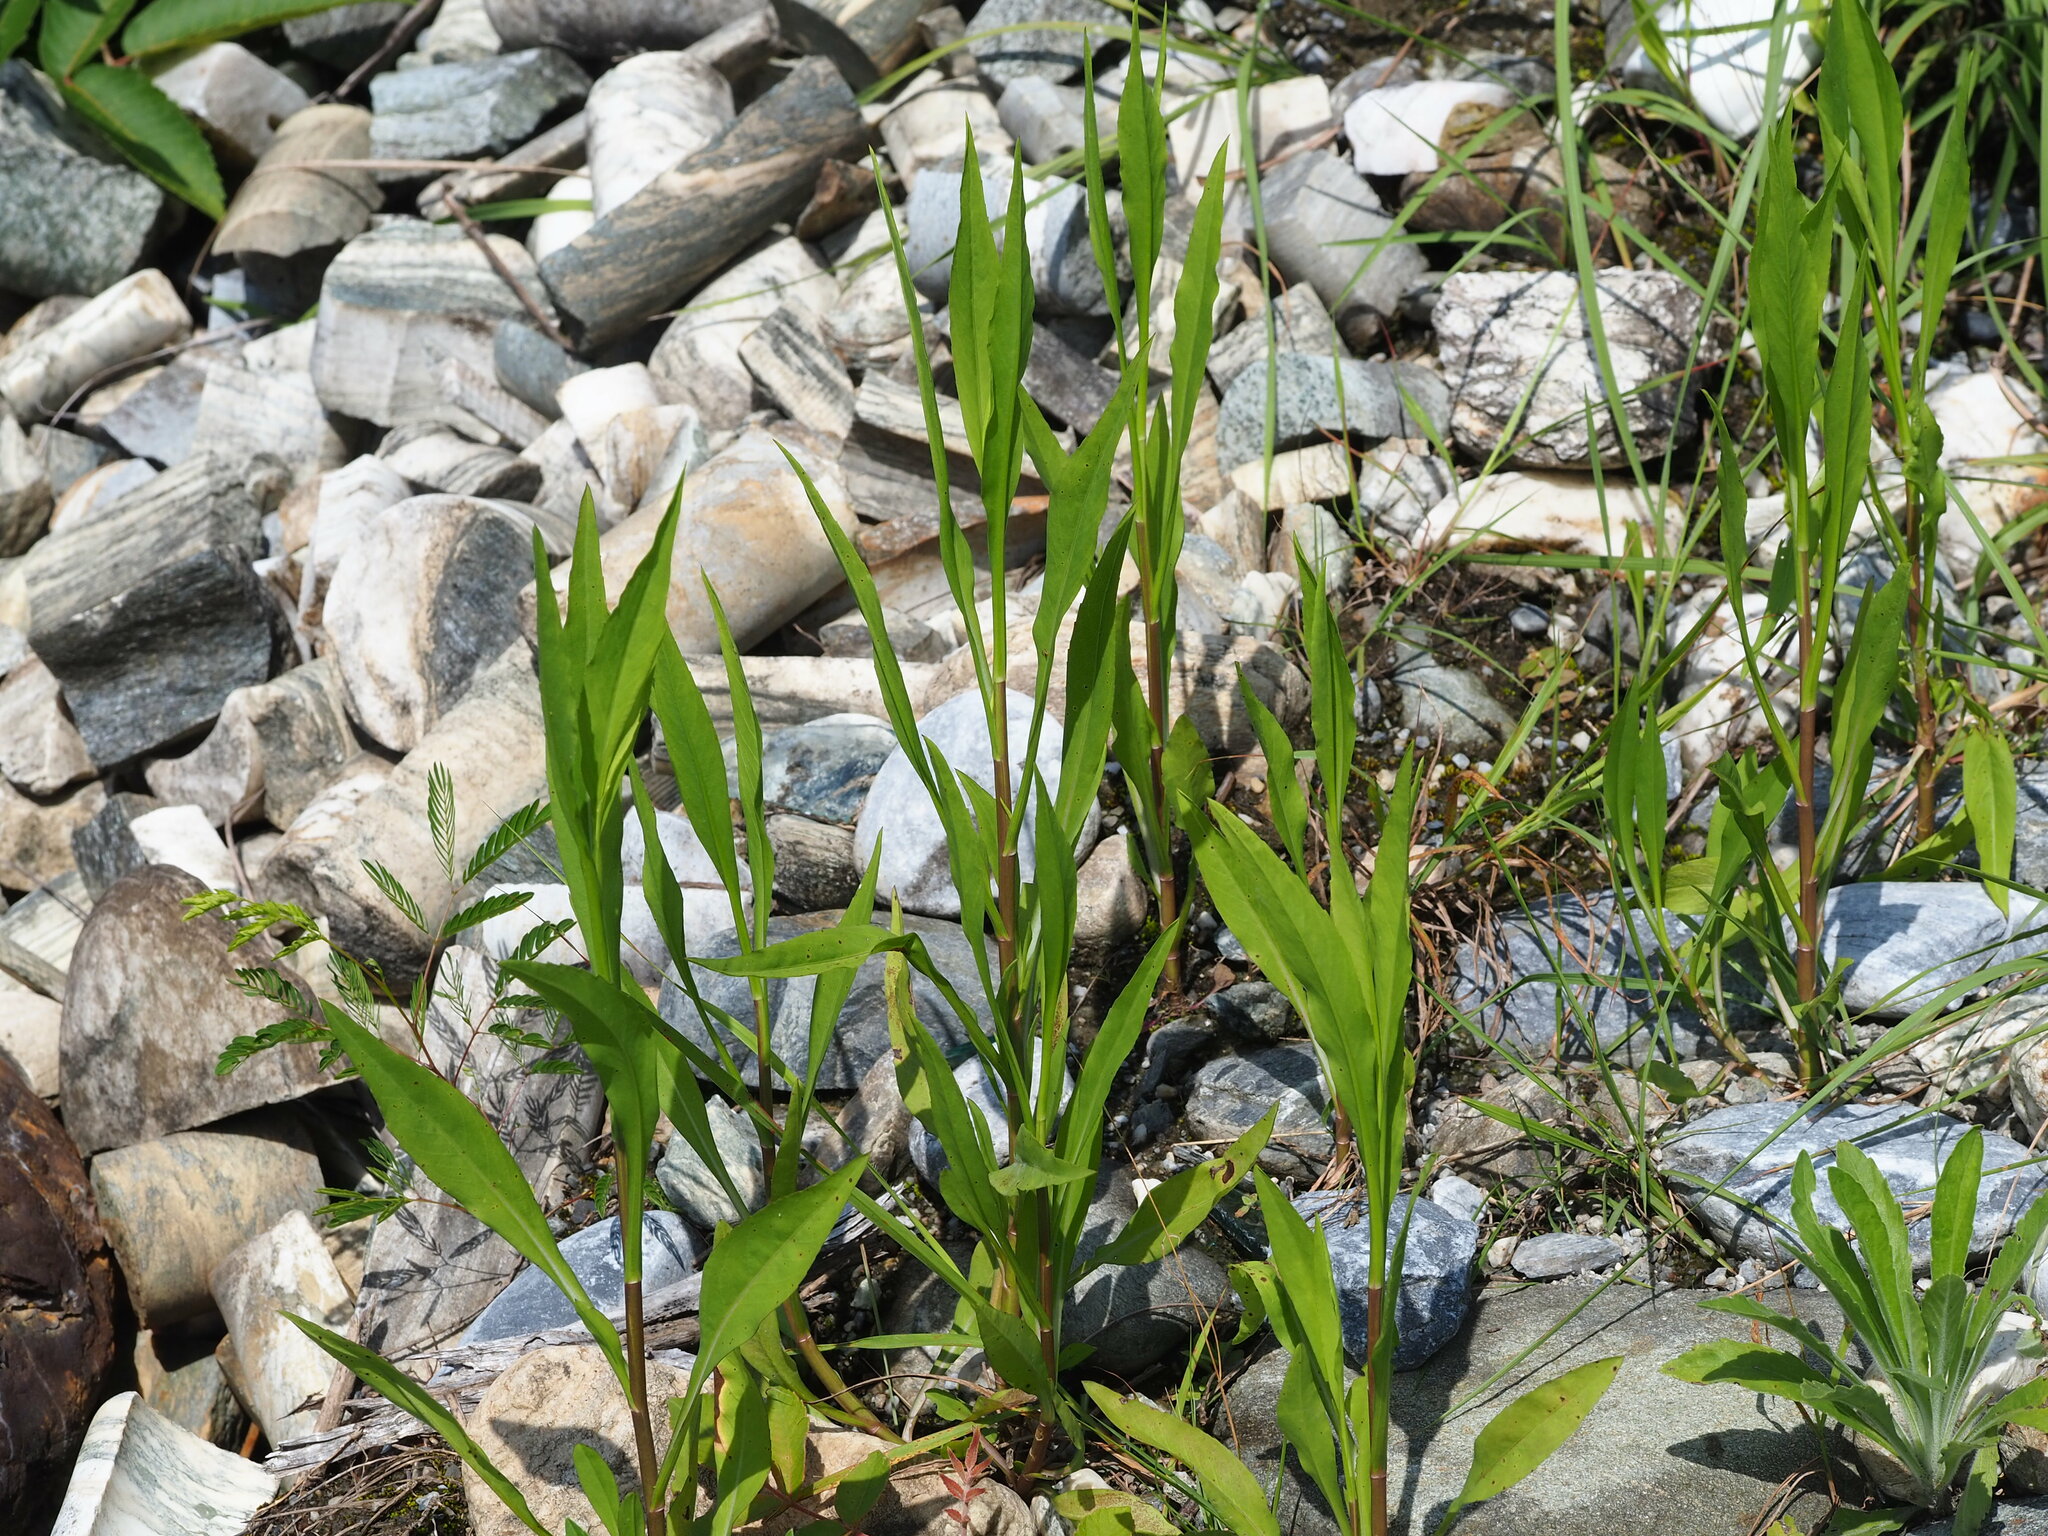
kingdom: Plantae
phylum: Tracheophyta
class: Magnoliopsida
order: Asterales
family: Asteraceae
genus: Symphyotrichum
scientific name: Symphyotrichum subulatum
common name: Annual saltmarsh aster
